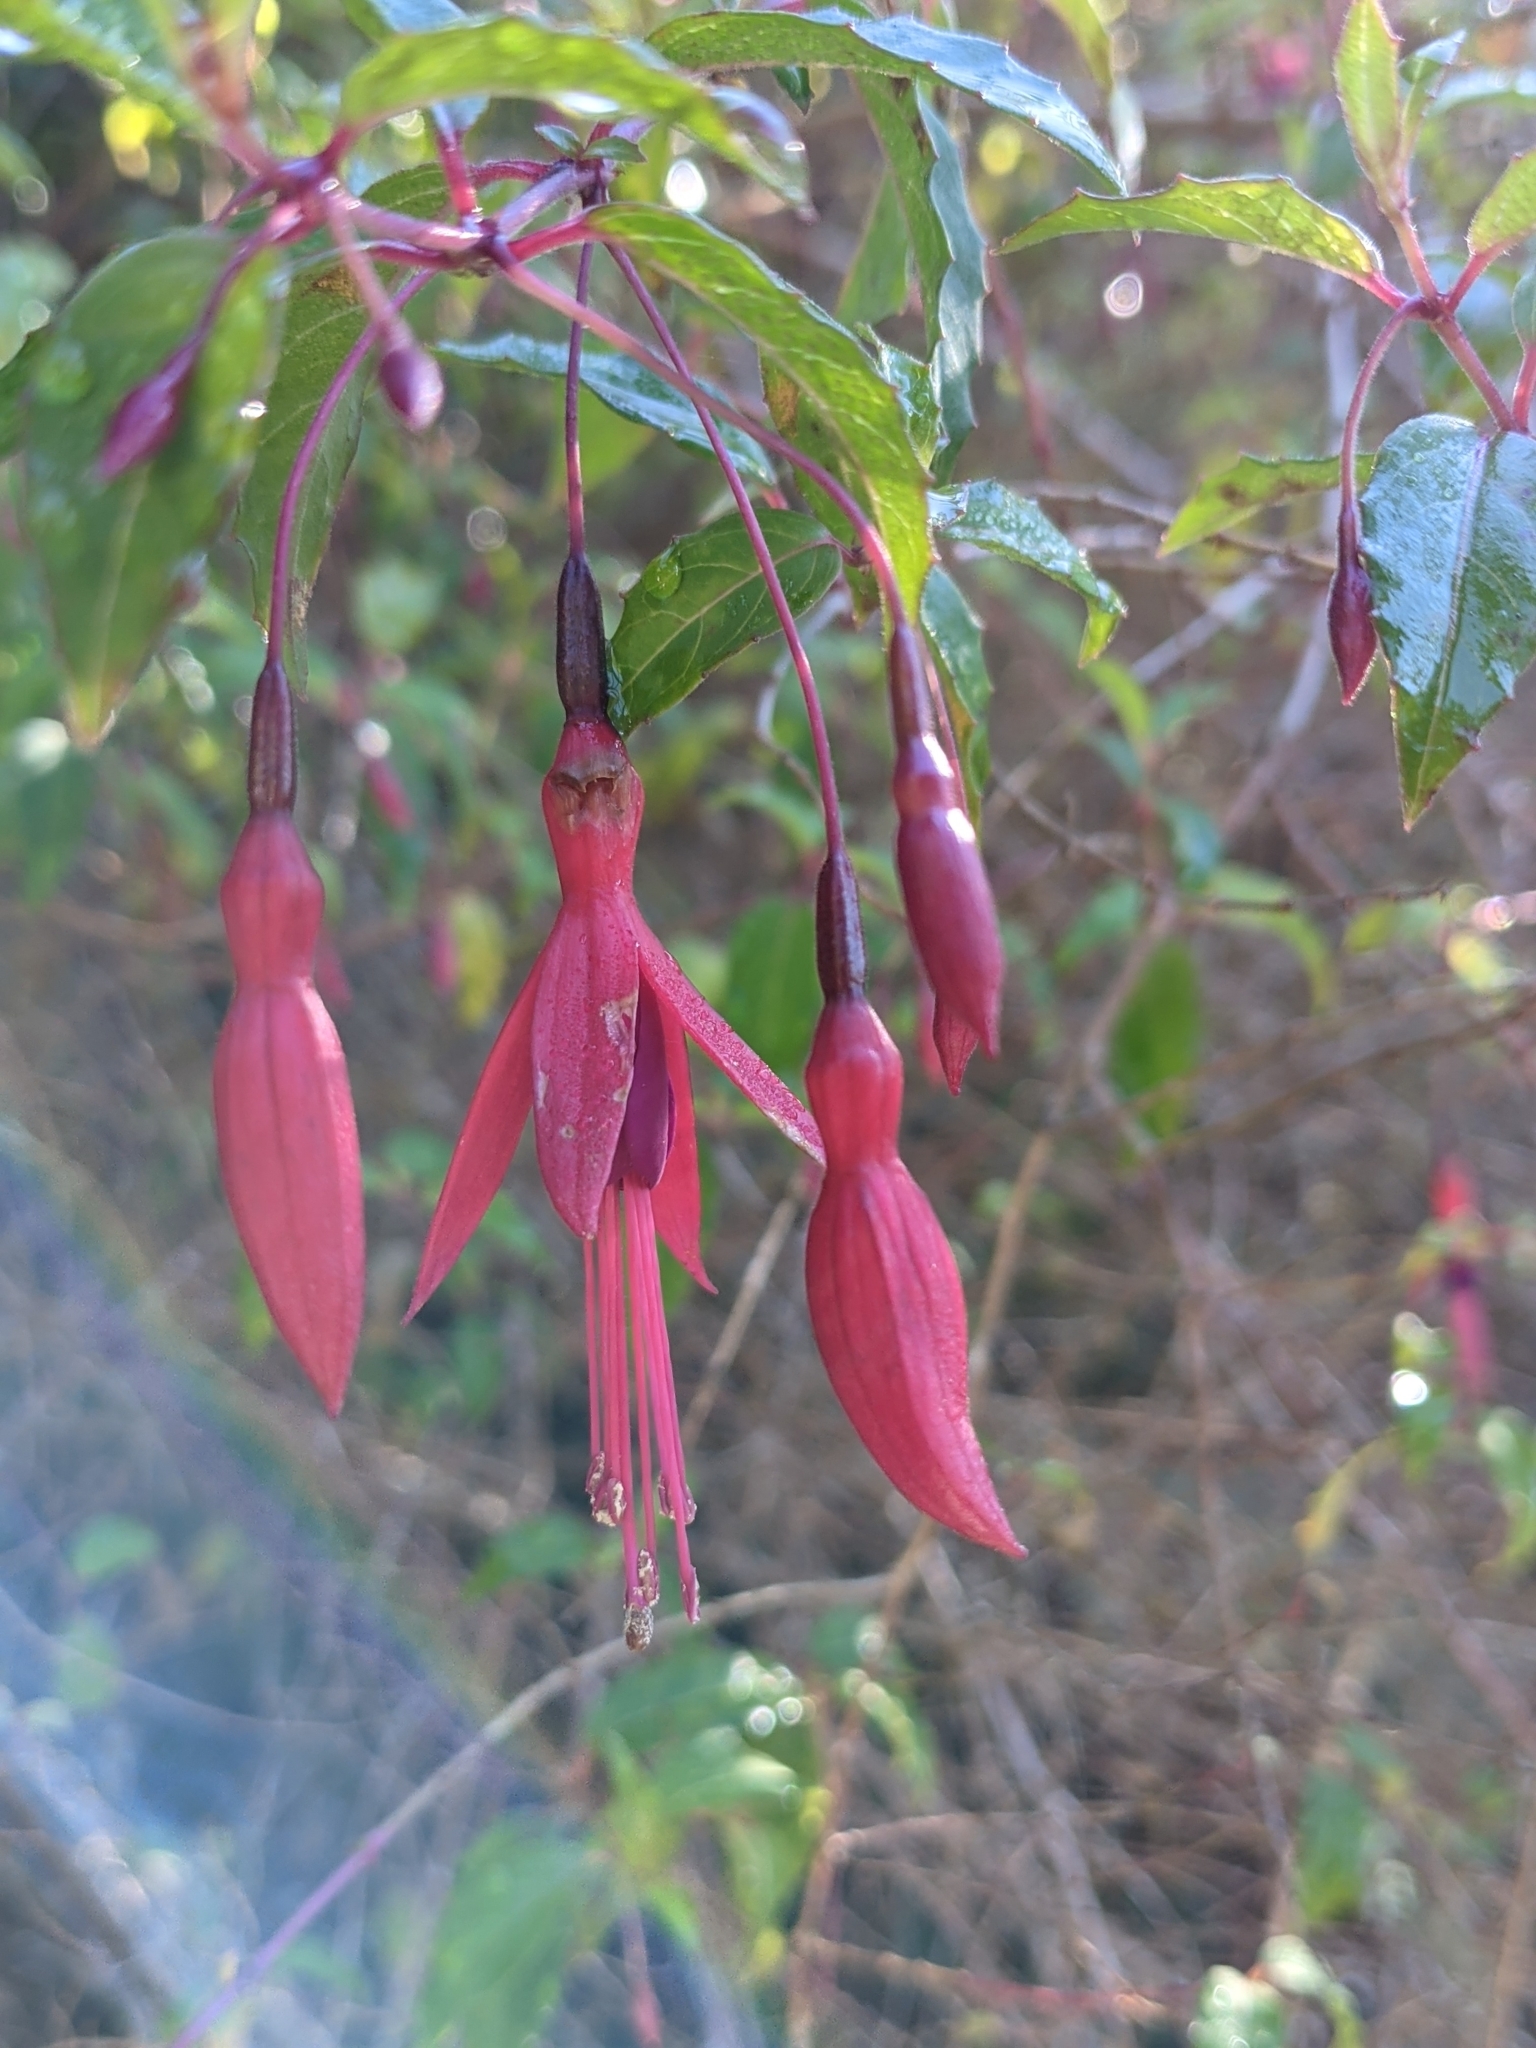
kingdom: Plantae
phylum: Tracheophyta
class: Magnoliopsida
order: Myrtales
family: Onagraceae
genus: Fuchsia
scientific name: Fuchsia magellanica
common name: Hardy fuchsia
